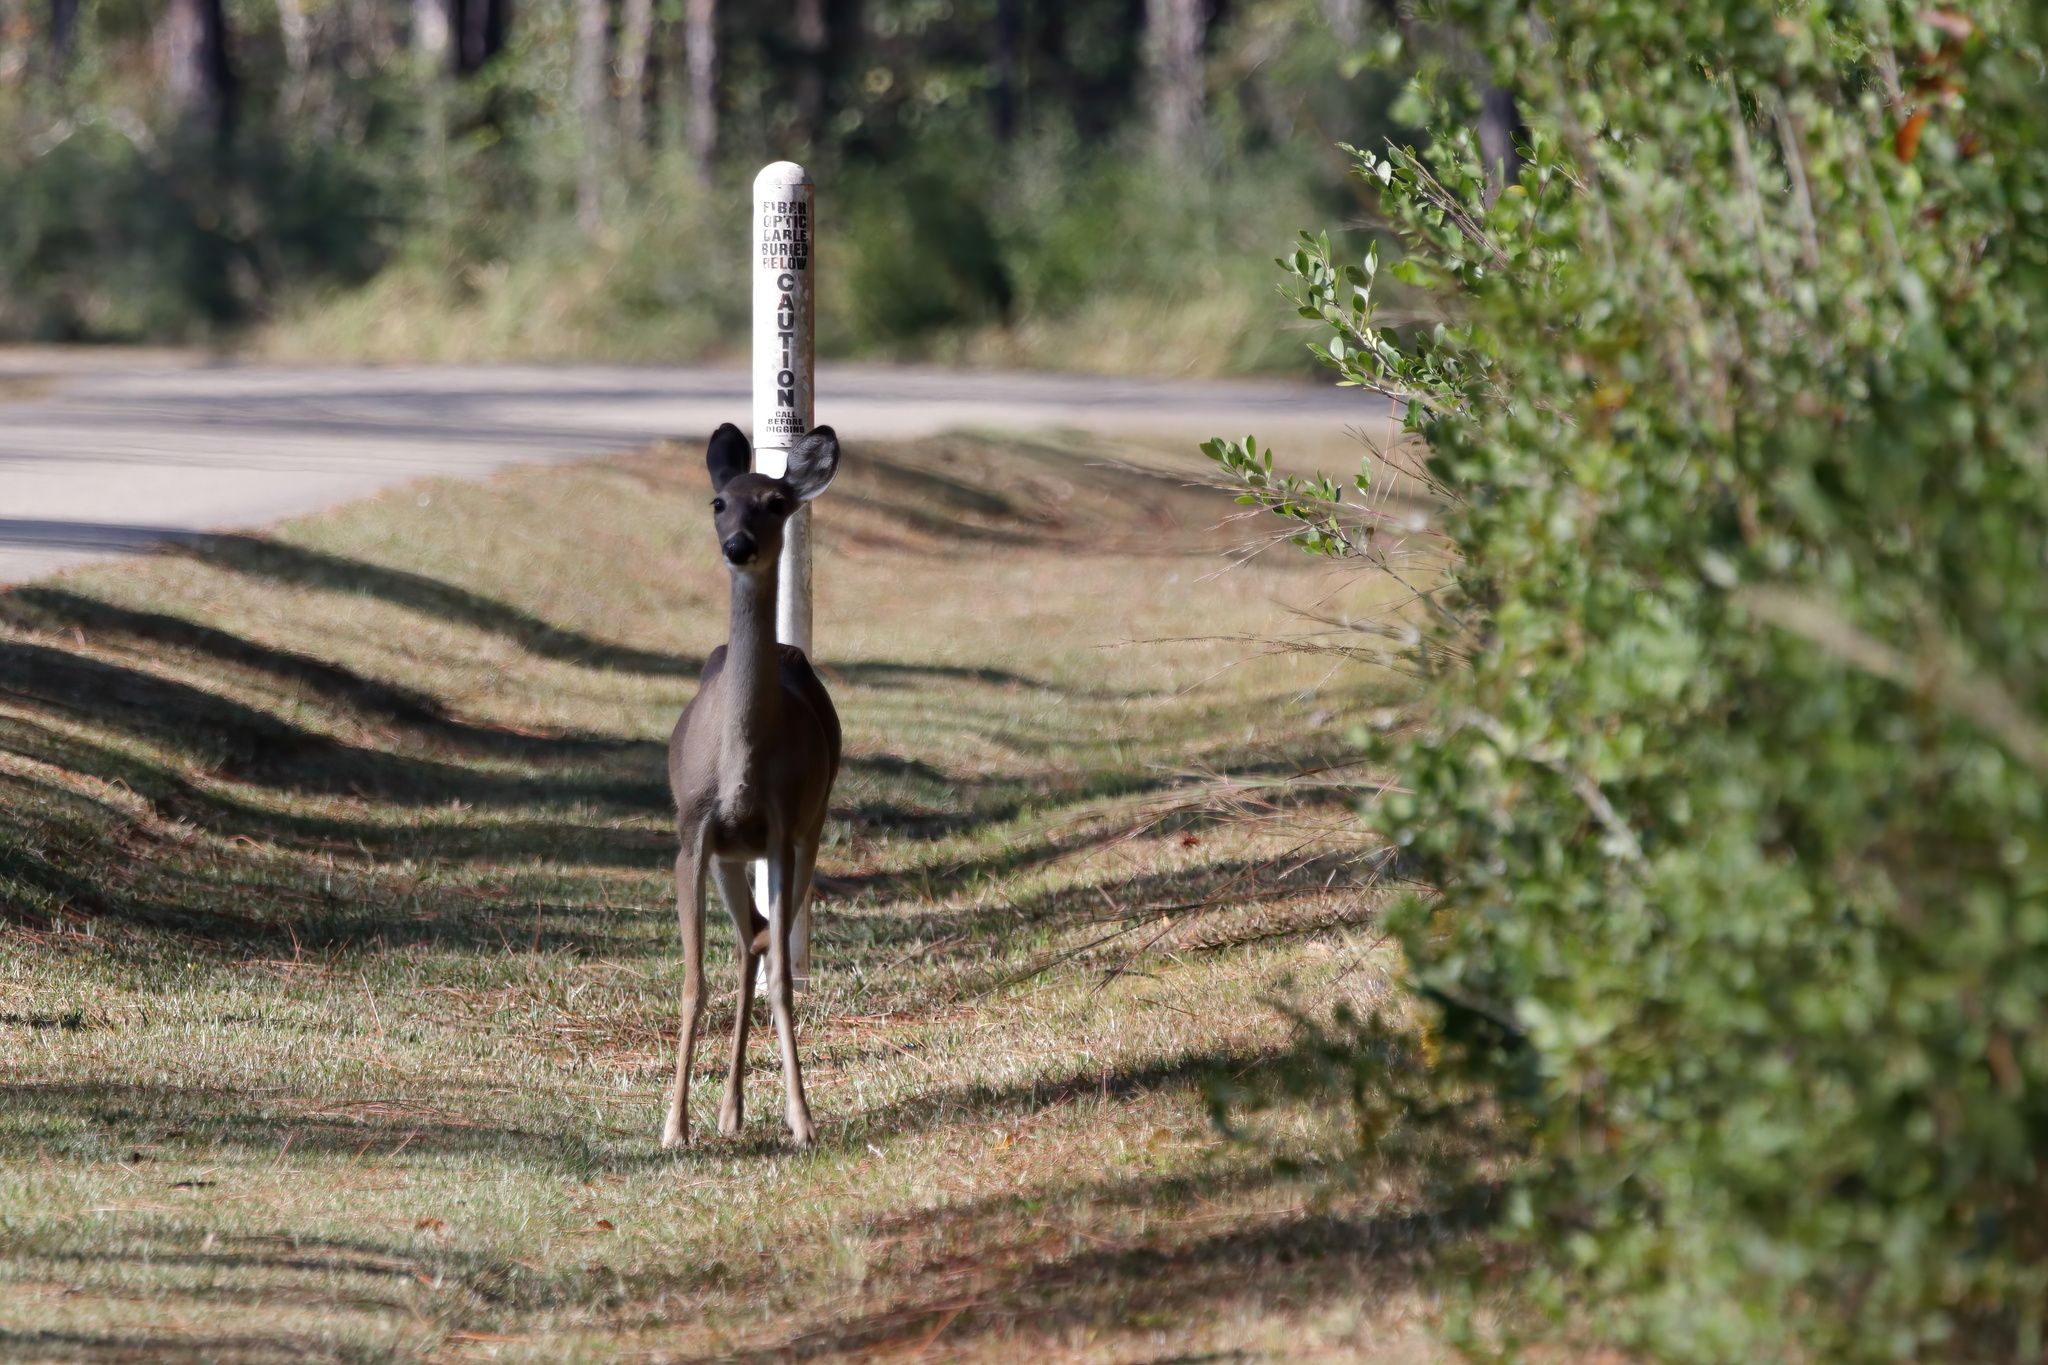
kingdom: Animalia
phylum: Chordata
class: Mammalia
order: Artiodactyla
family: Cervidae
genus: Odocoileus
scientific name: Odocoileus virginianus
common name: White-tailed deer
